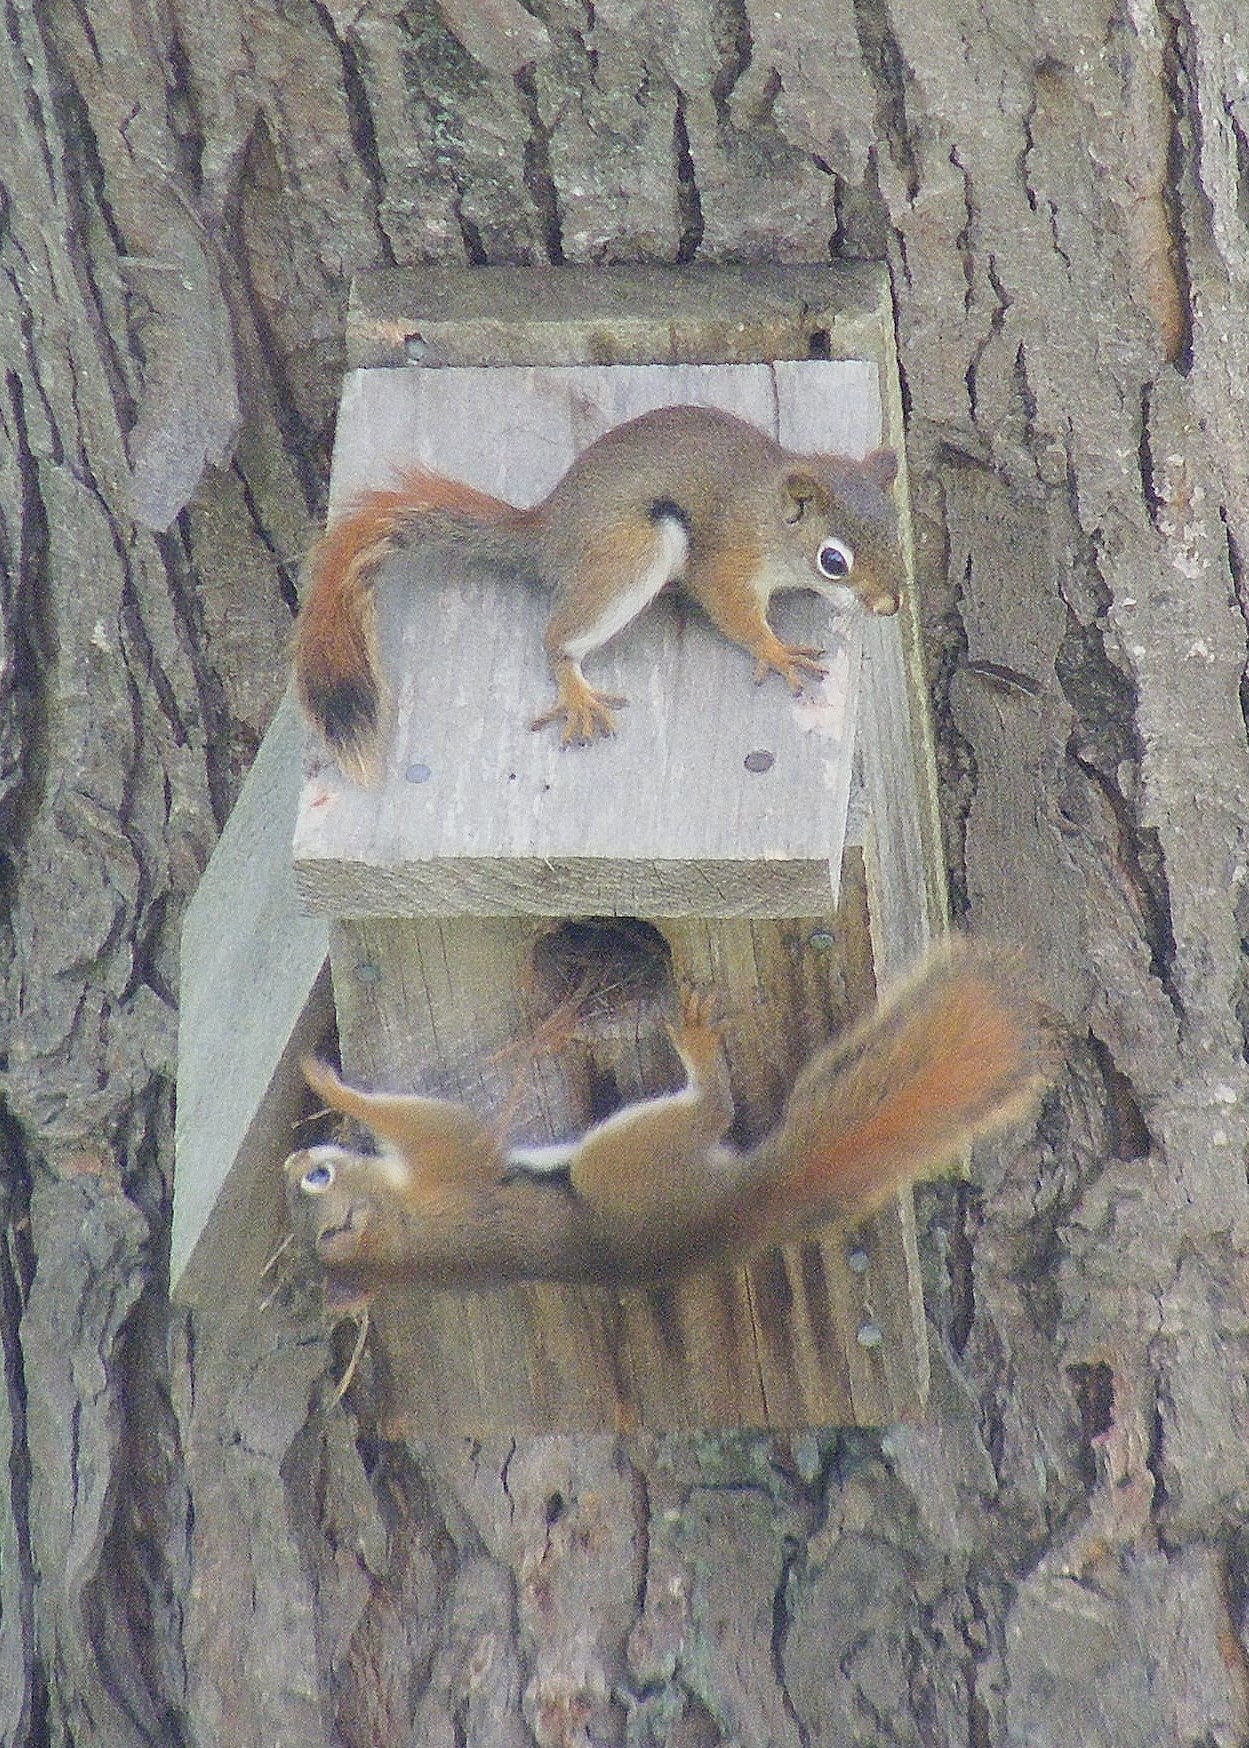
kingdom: Animalia
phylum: Chordata
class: Mammalia
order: Rodentia
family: Sciuridae
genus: Tamiasciurus
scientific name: Tamiasciurus hudsonicus
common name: Red squirrel
